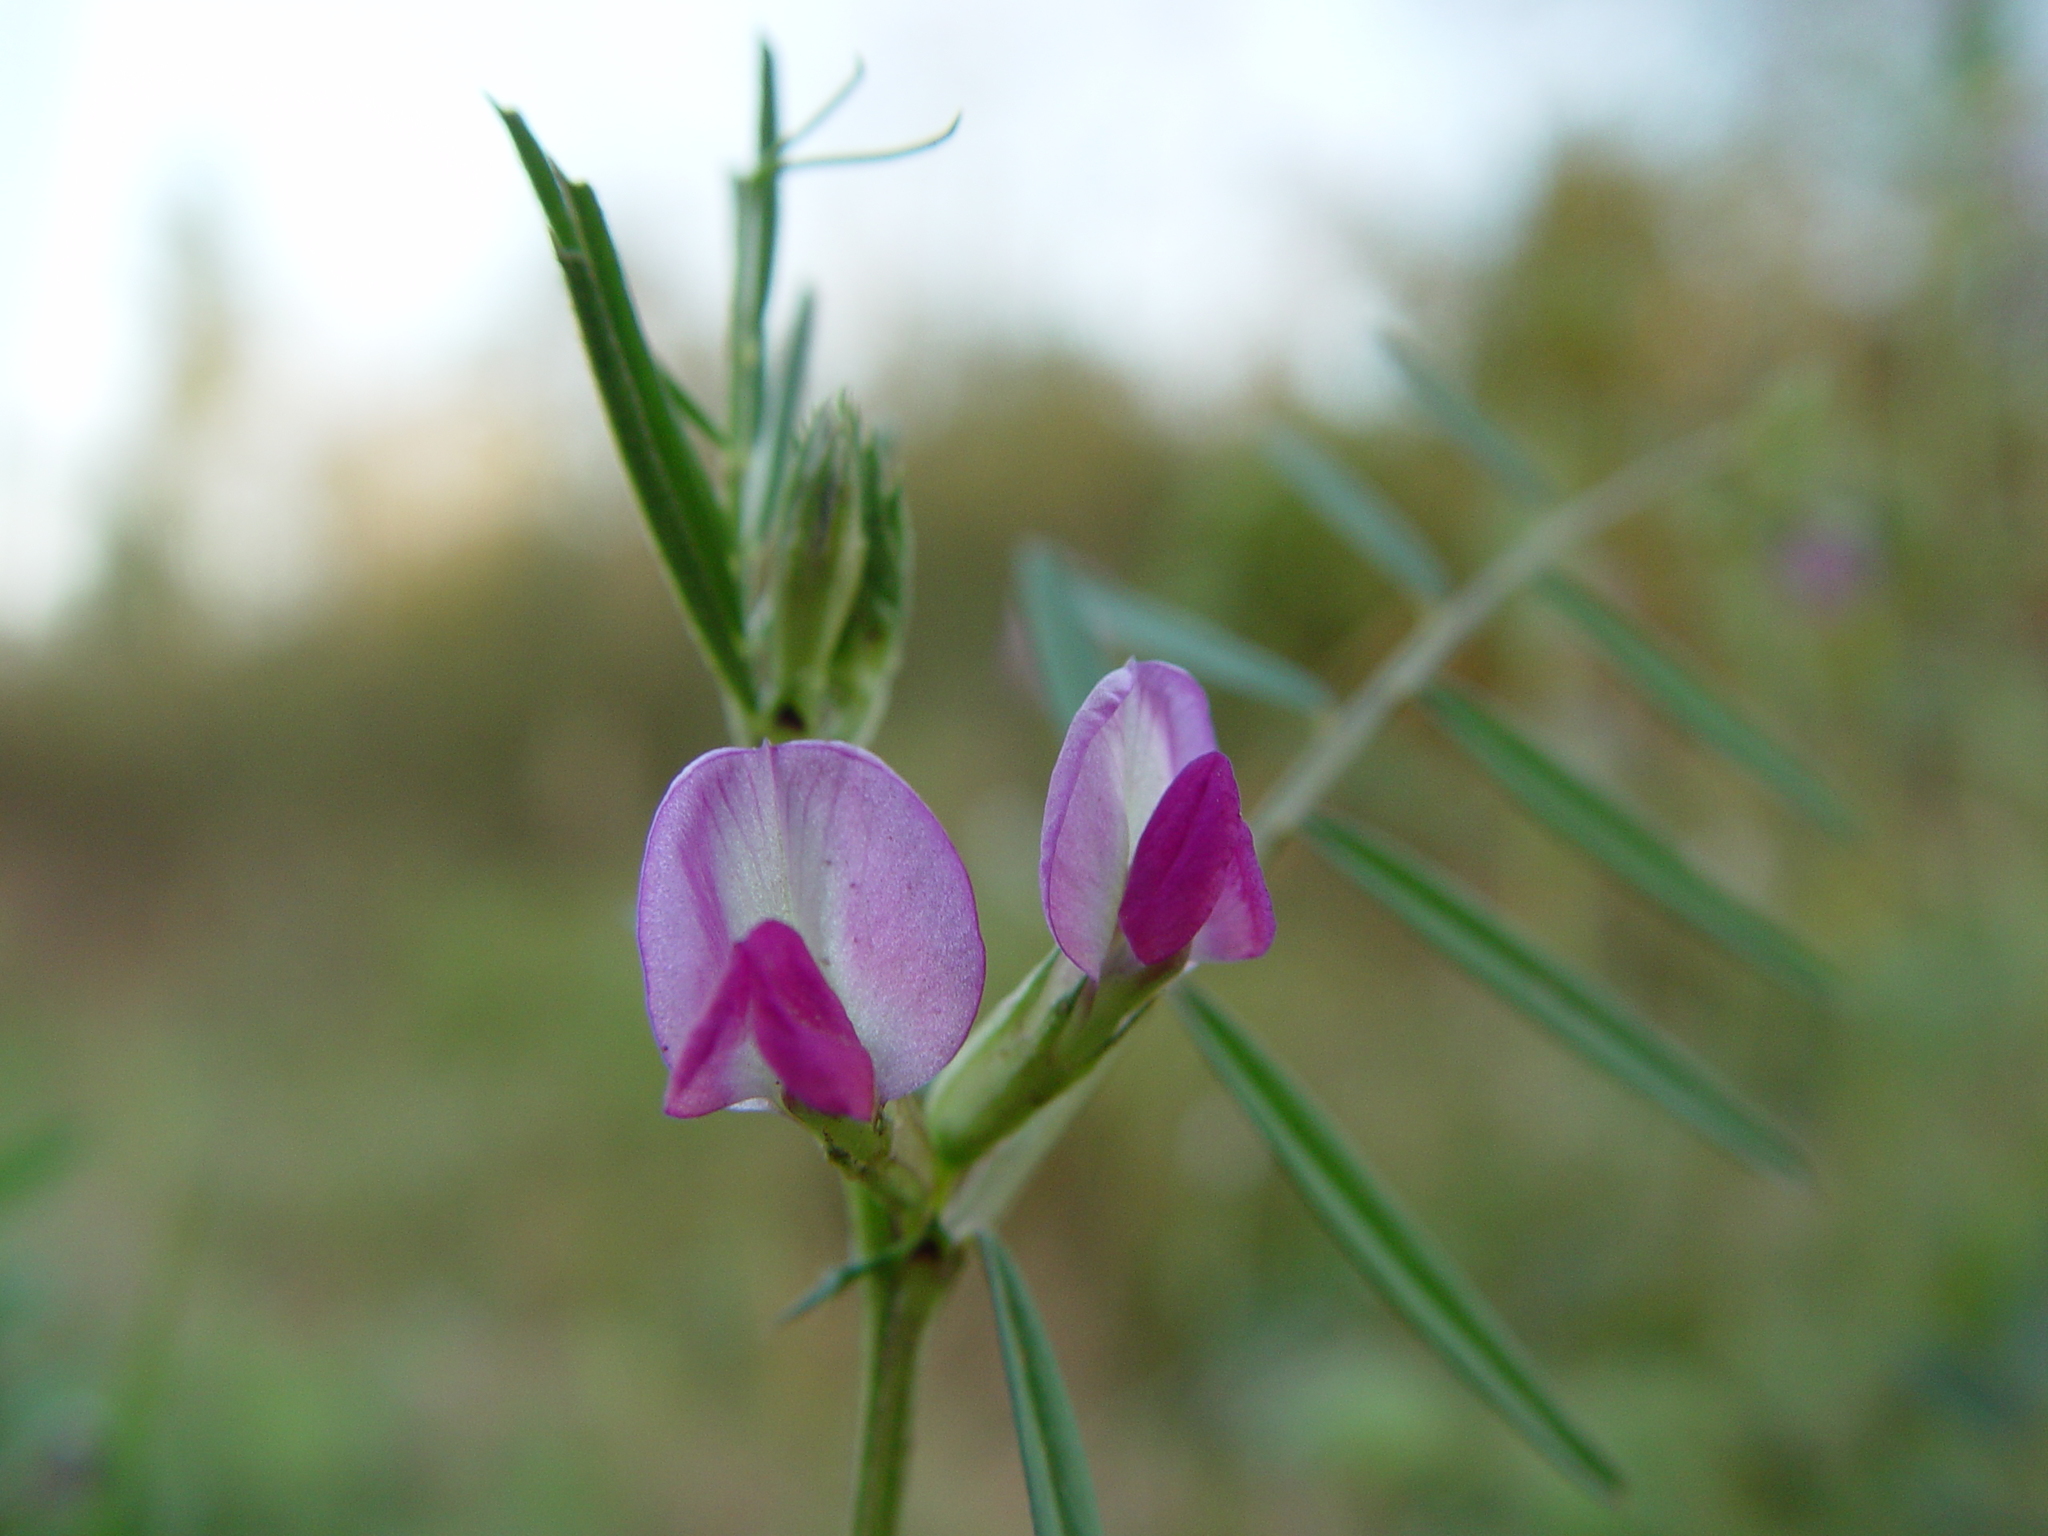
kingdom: Plantae
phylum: Tracheophyta
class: Magnoliopsida
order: Fabales
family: Fabaceae
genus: Vicia
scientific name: Vicia sativa
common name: Garden vetch
